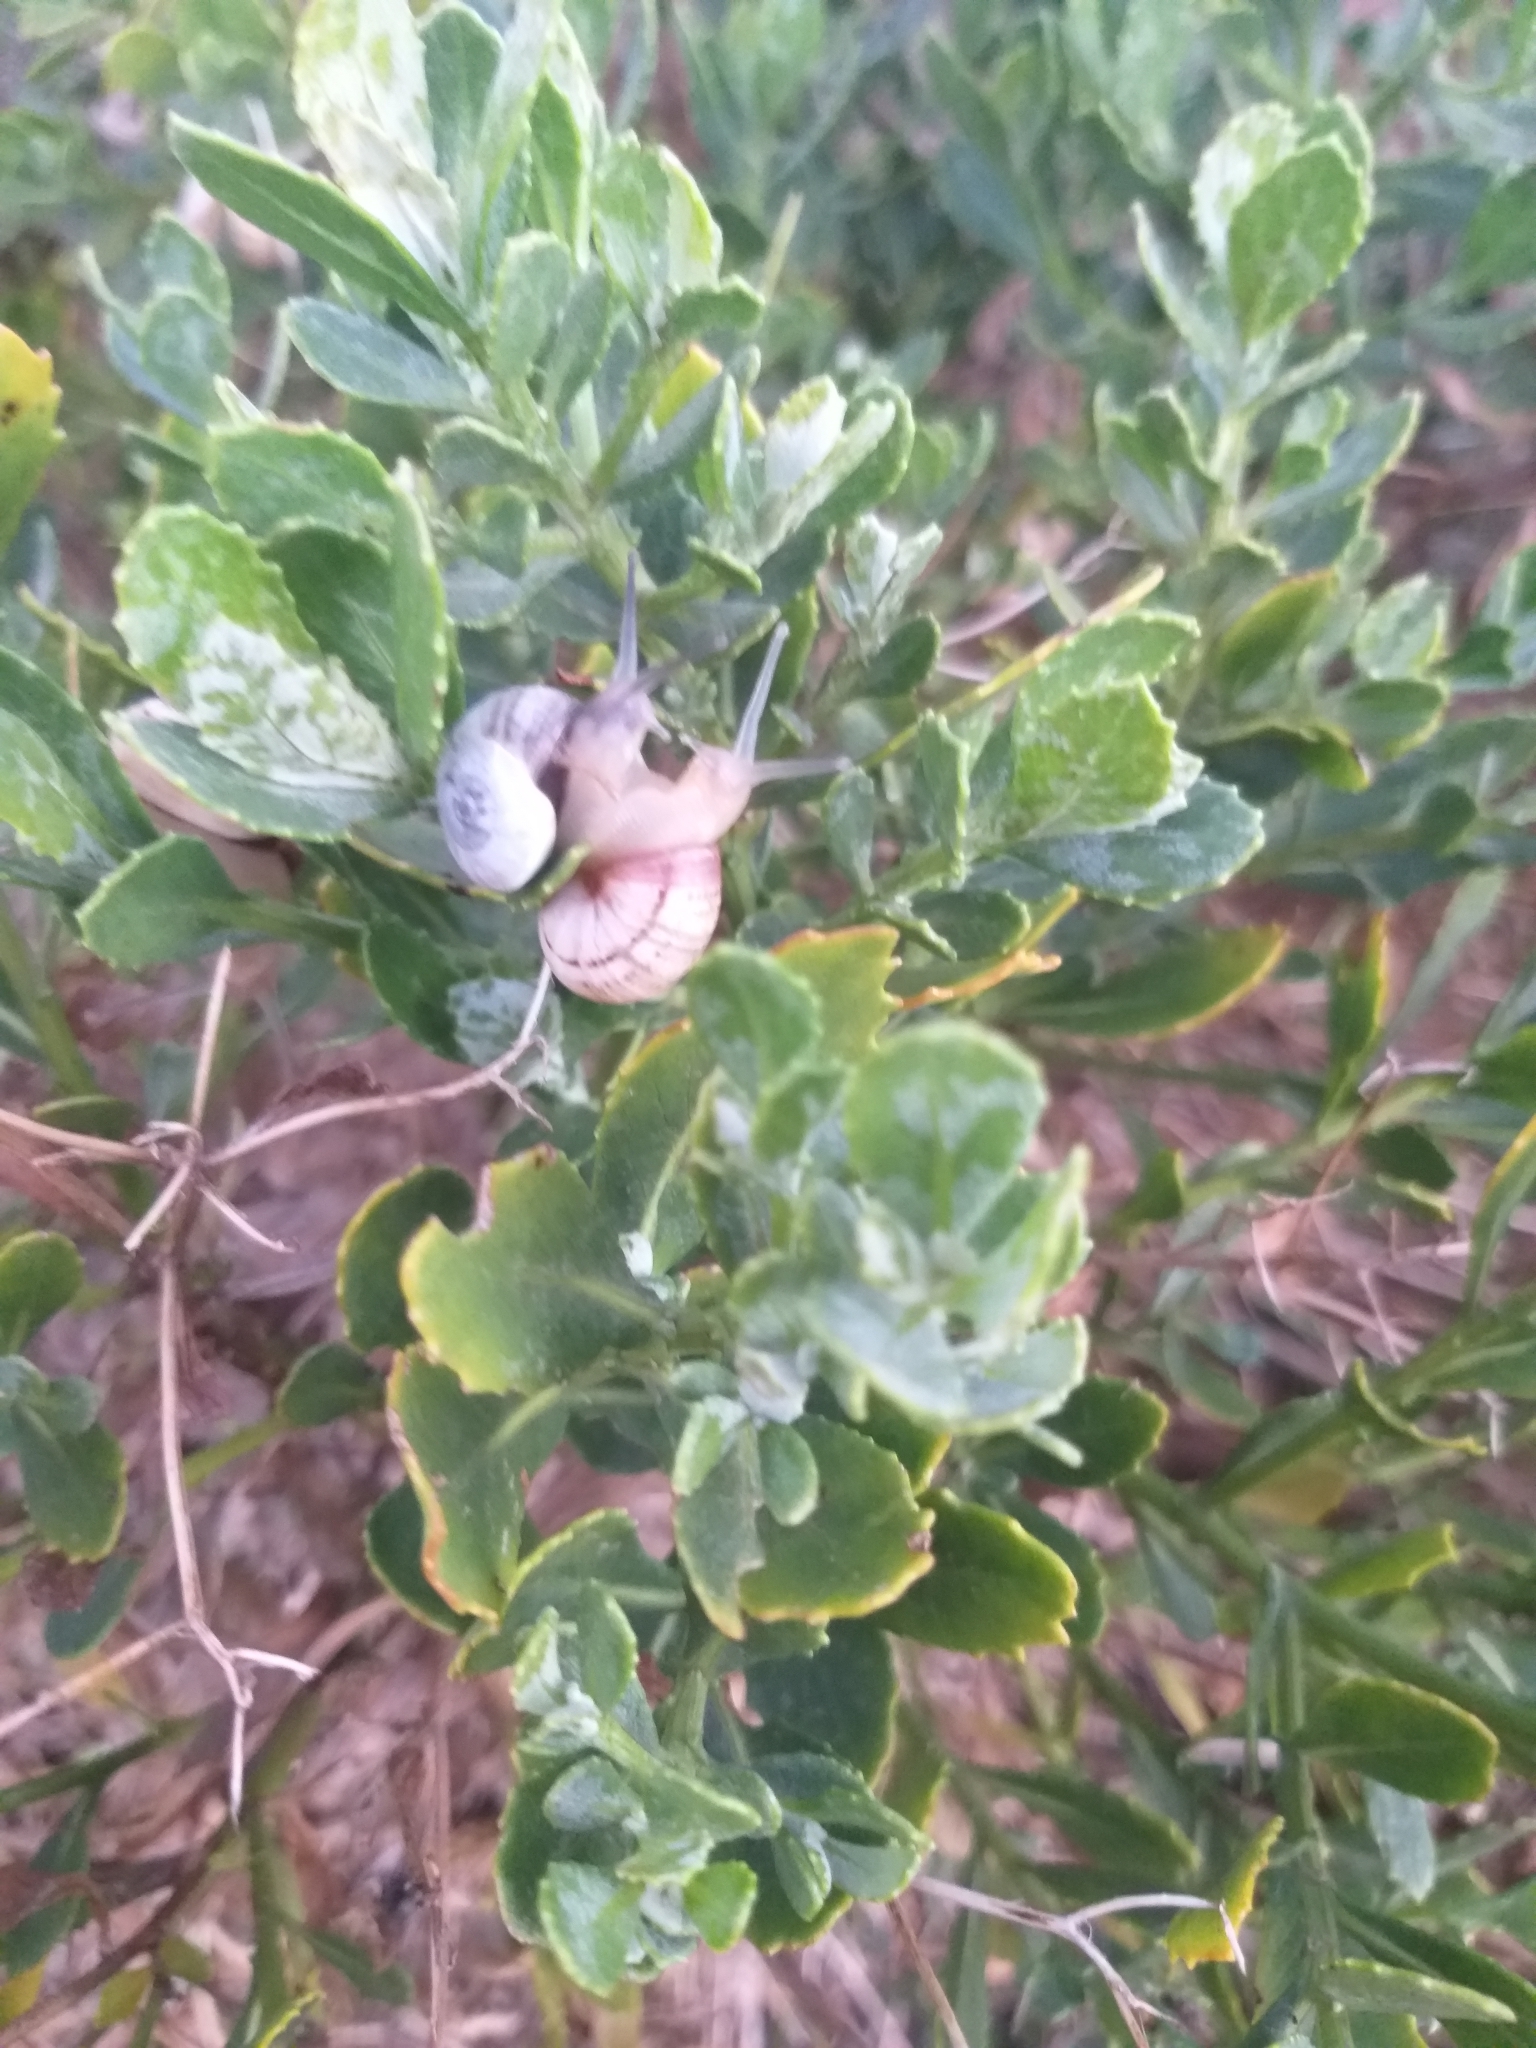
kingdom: Animalia
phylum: Mollusca
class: Gastropoda
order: Stylommatophora
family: Helicidae
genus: Theba
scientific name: Theba pisana
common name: White snail
